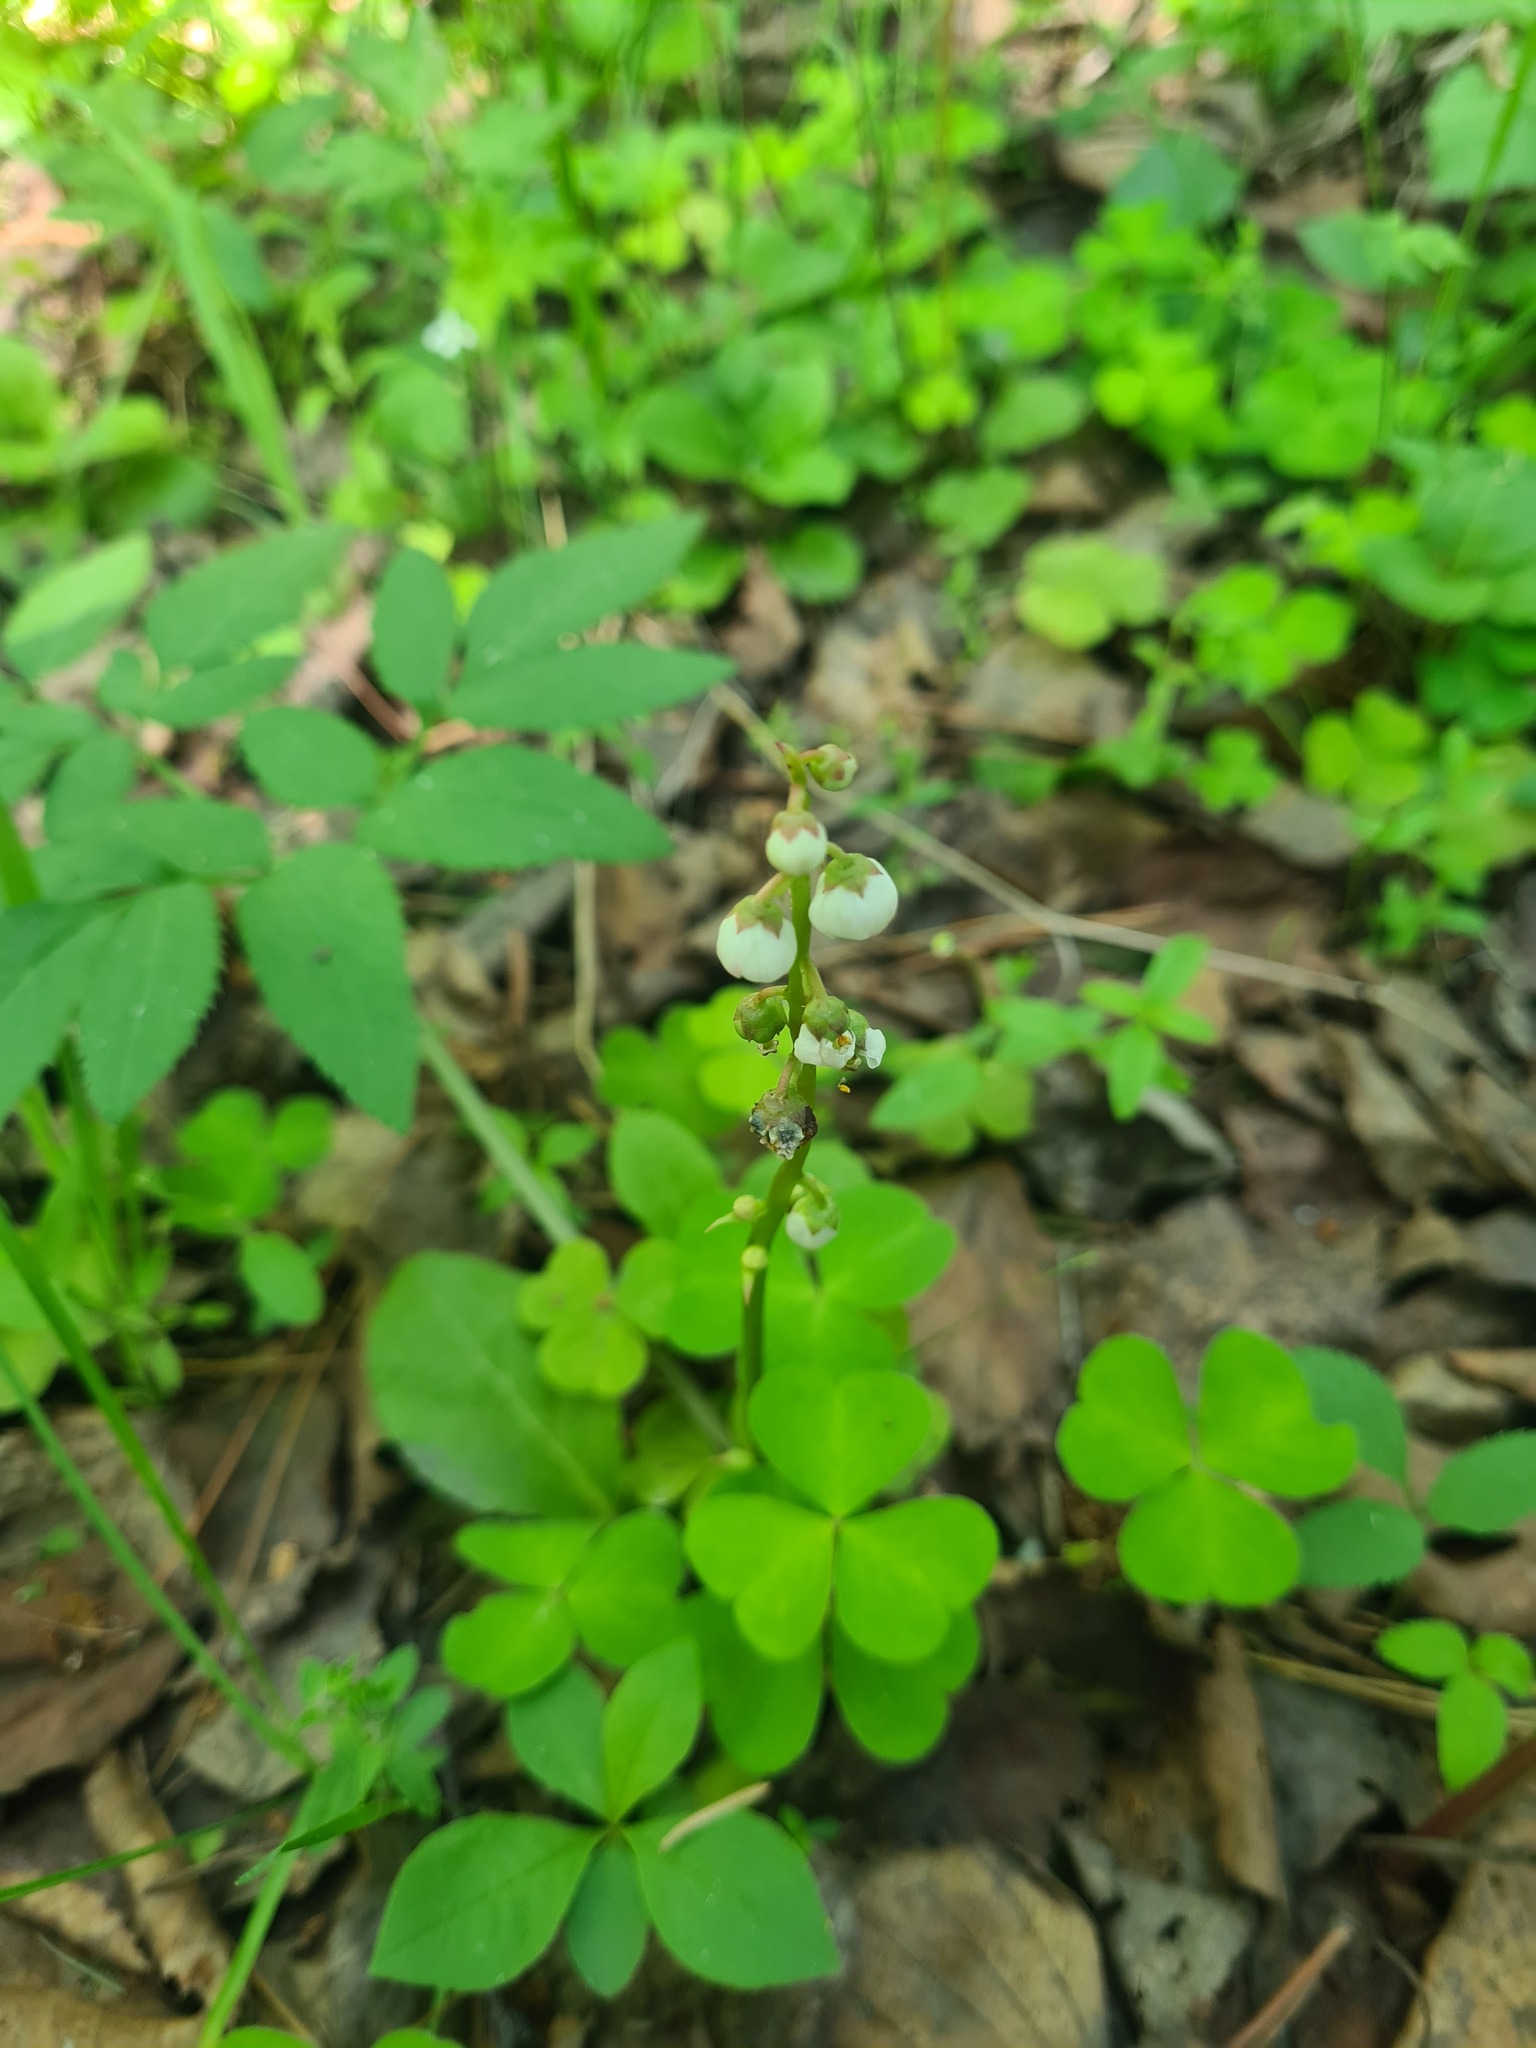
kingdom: Plantae
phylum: Tracheophyta
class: Magnoliopsida
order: Ericales
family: Ericaceae
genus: Pyrola
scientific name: Pyrola minor
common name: Common wintergreen
